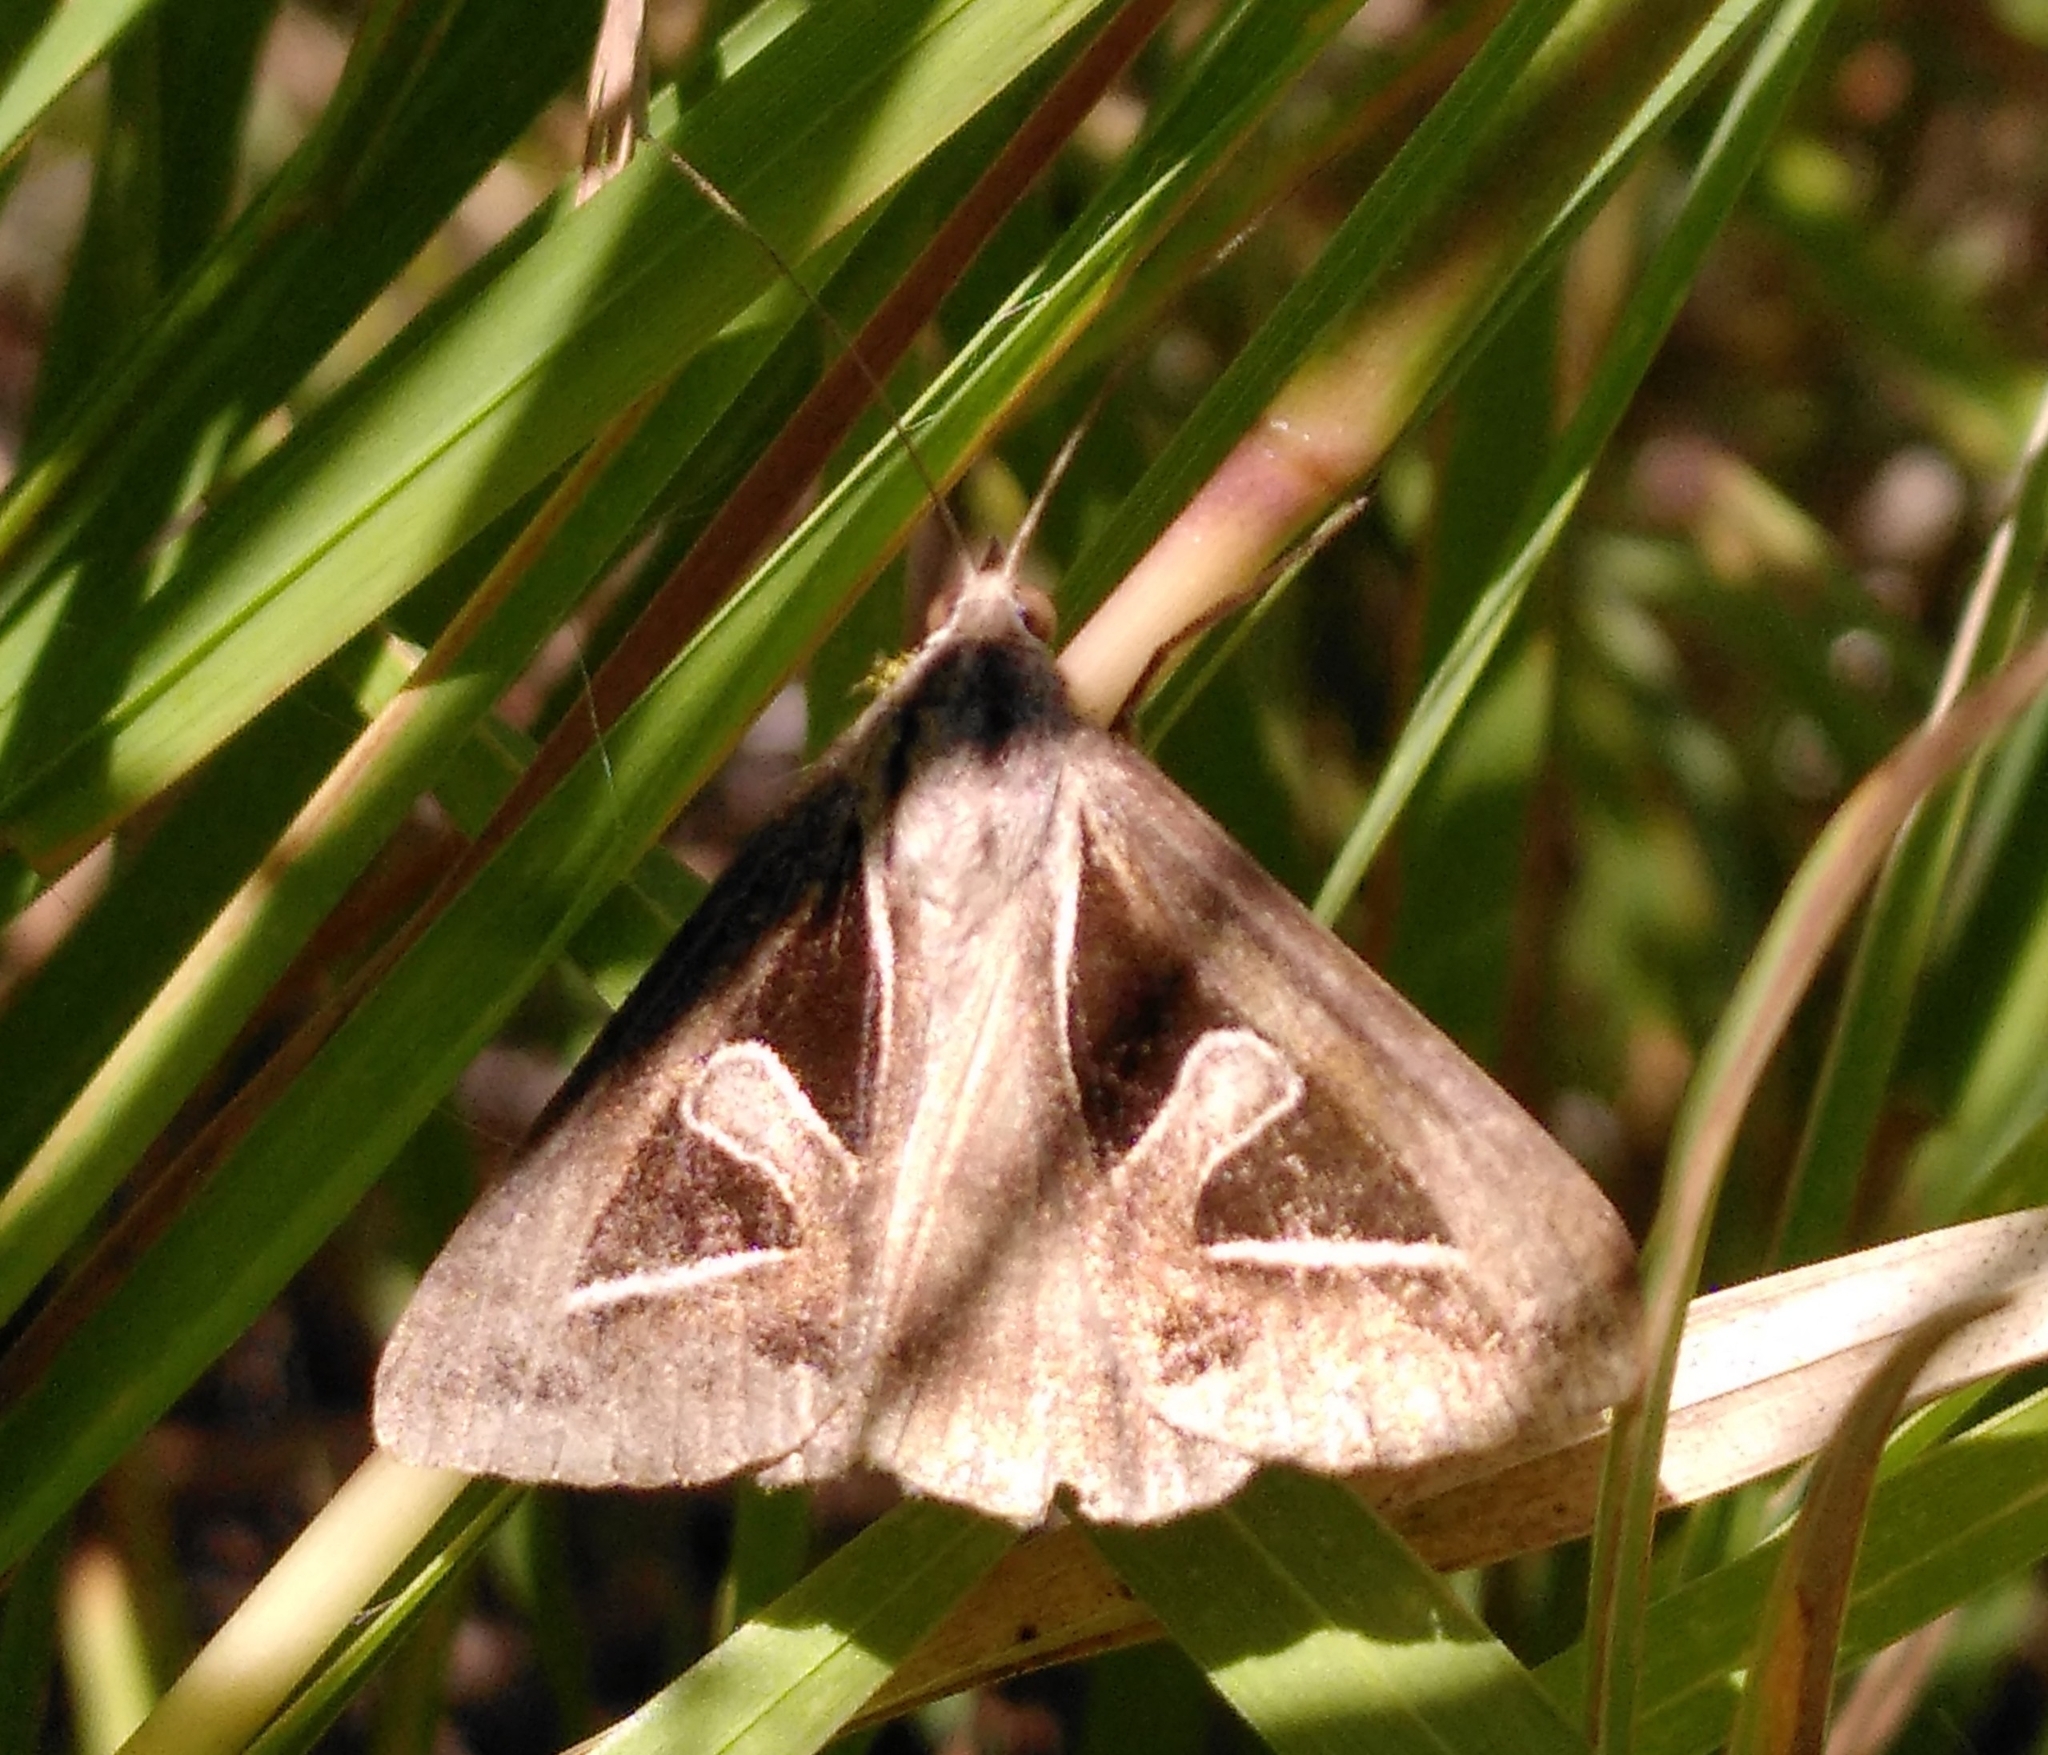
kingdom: Animalia
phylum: Arthropoda
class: Insecta
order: Lepidoptera
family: Erebidae
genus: Trigonodes
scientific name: Trigonodes hyppasia
